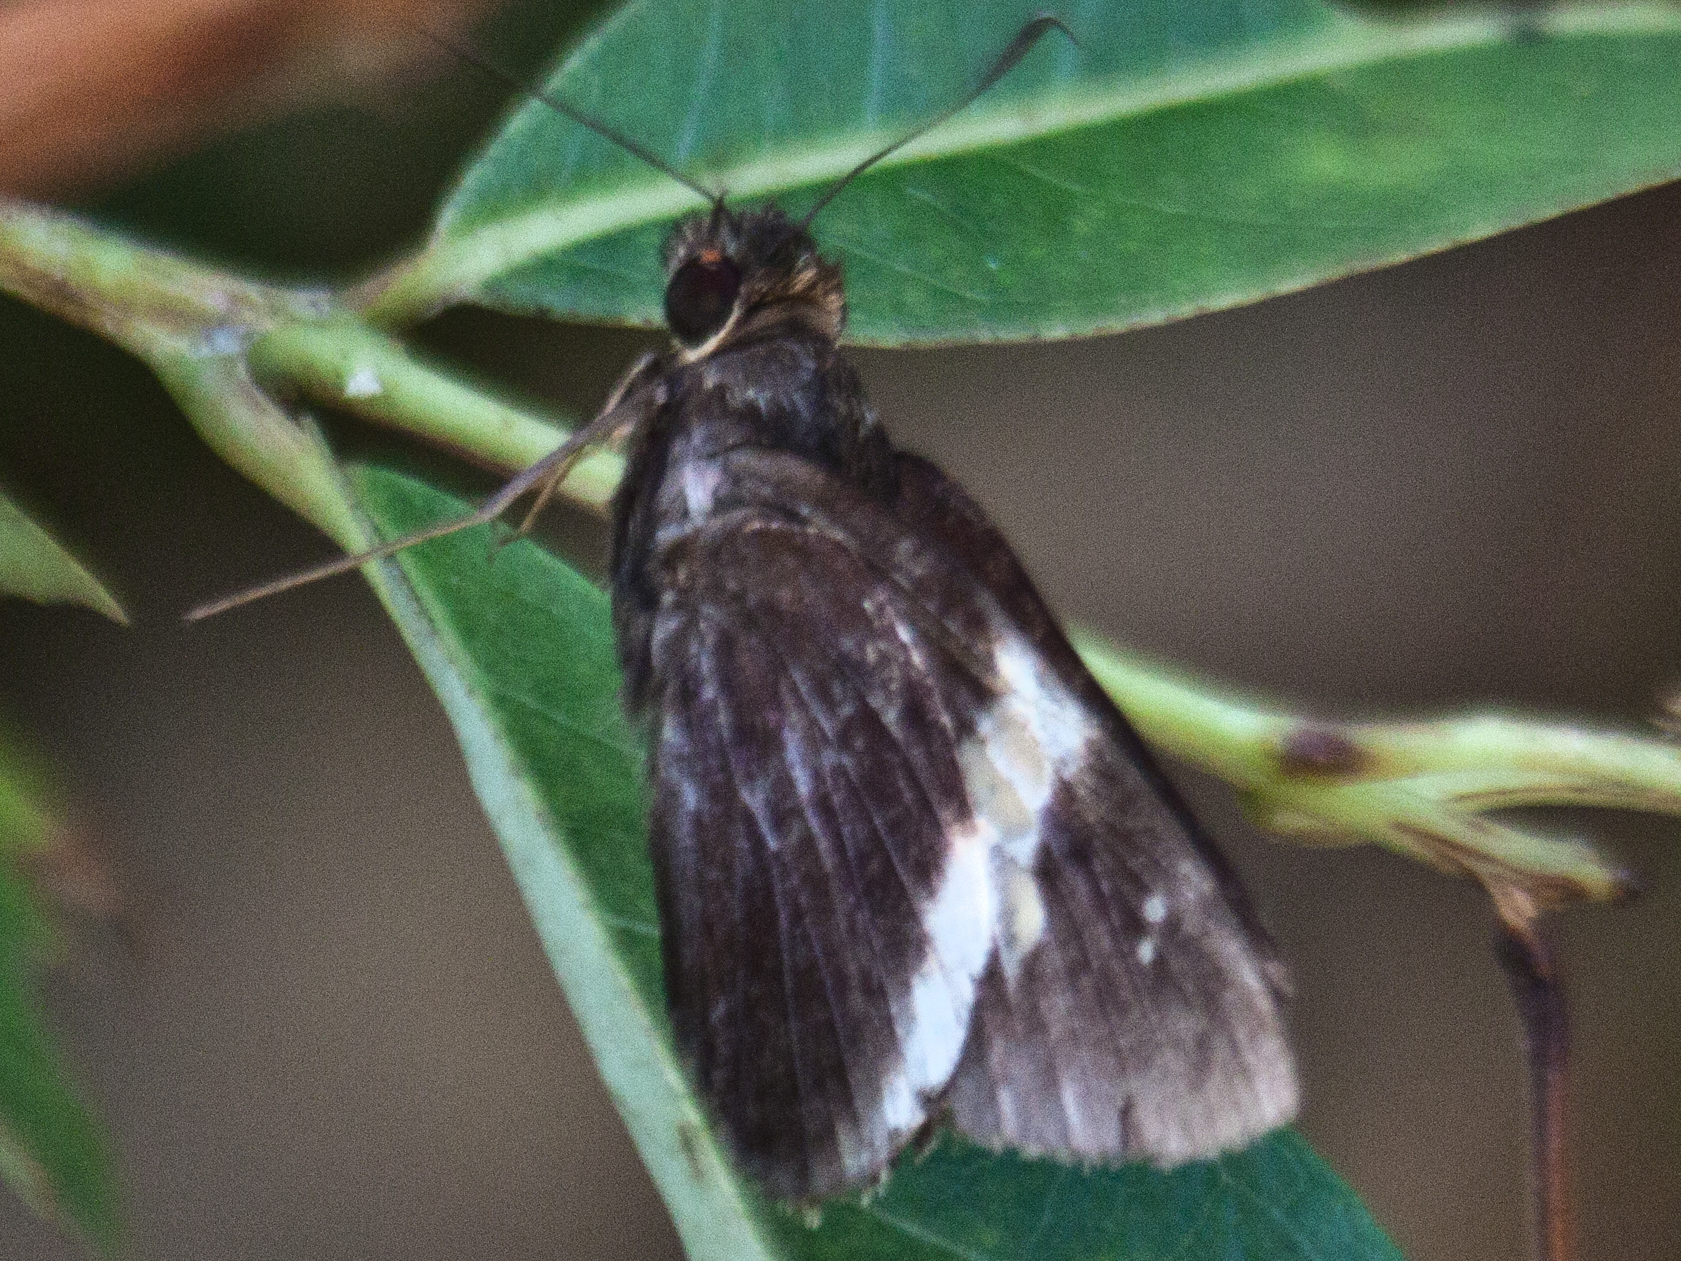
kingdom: Animalia
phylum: Arthropoda
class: Insecta
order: Lepidoptera
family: Hesperiidae
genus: Lotongus
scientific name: Lotongus calathus
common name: White-tipped palmer
